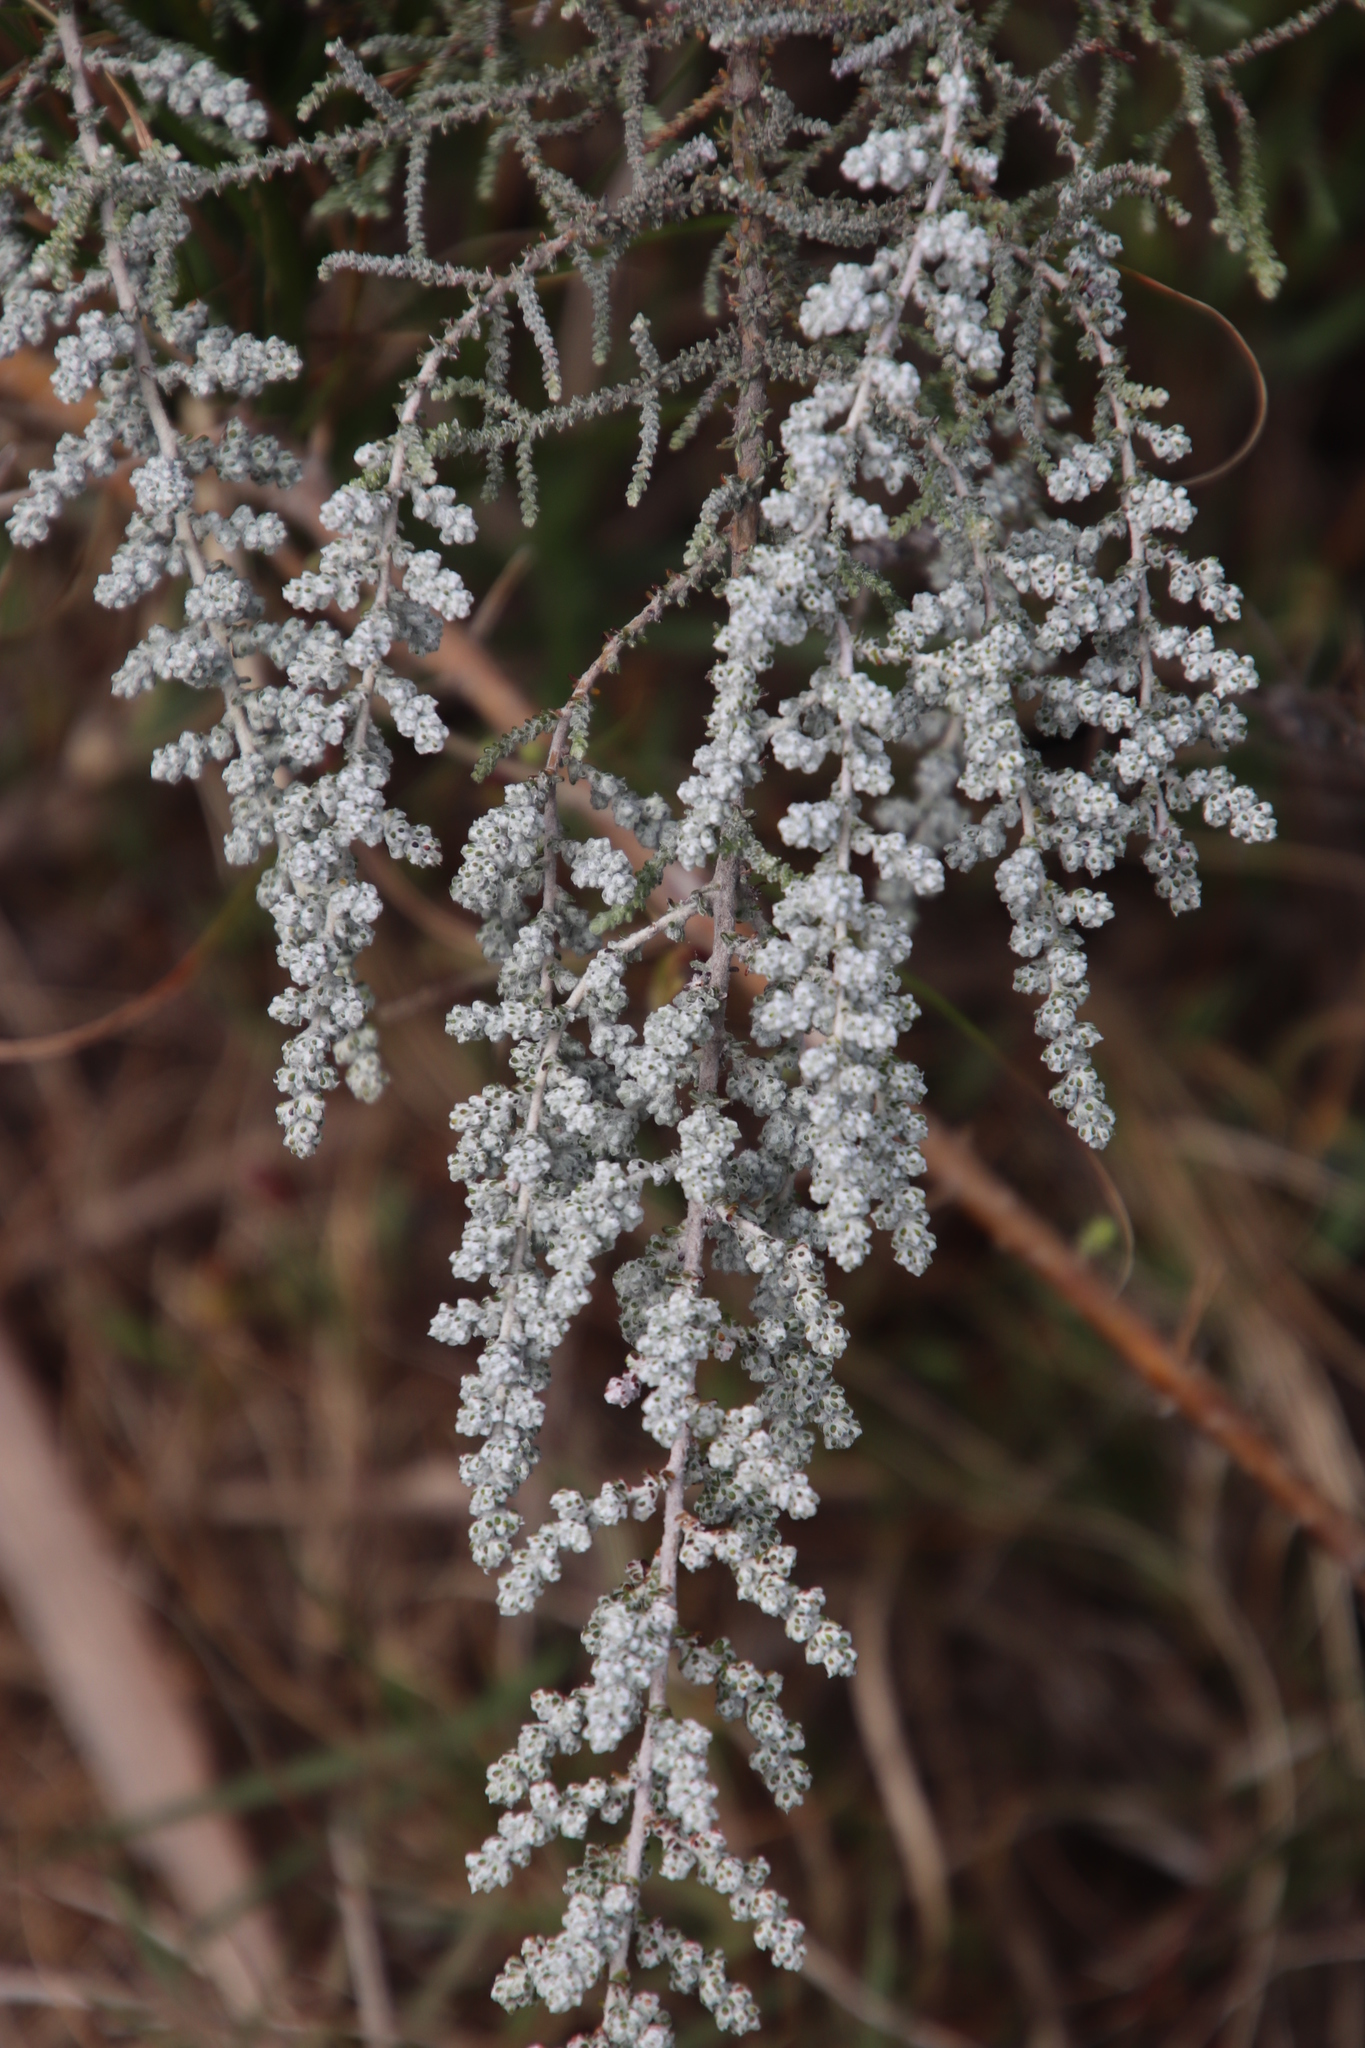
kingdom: Plantae
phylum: Tracheophyta
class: Magnoliopsida
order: Asterales
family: Asteraceae
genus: Seriphium
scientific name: Seriphium plumosum
